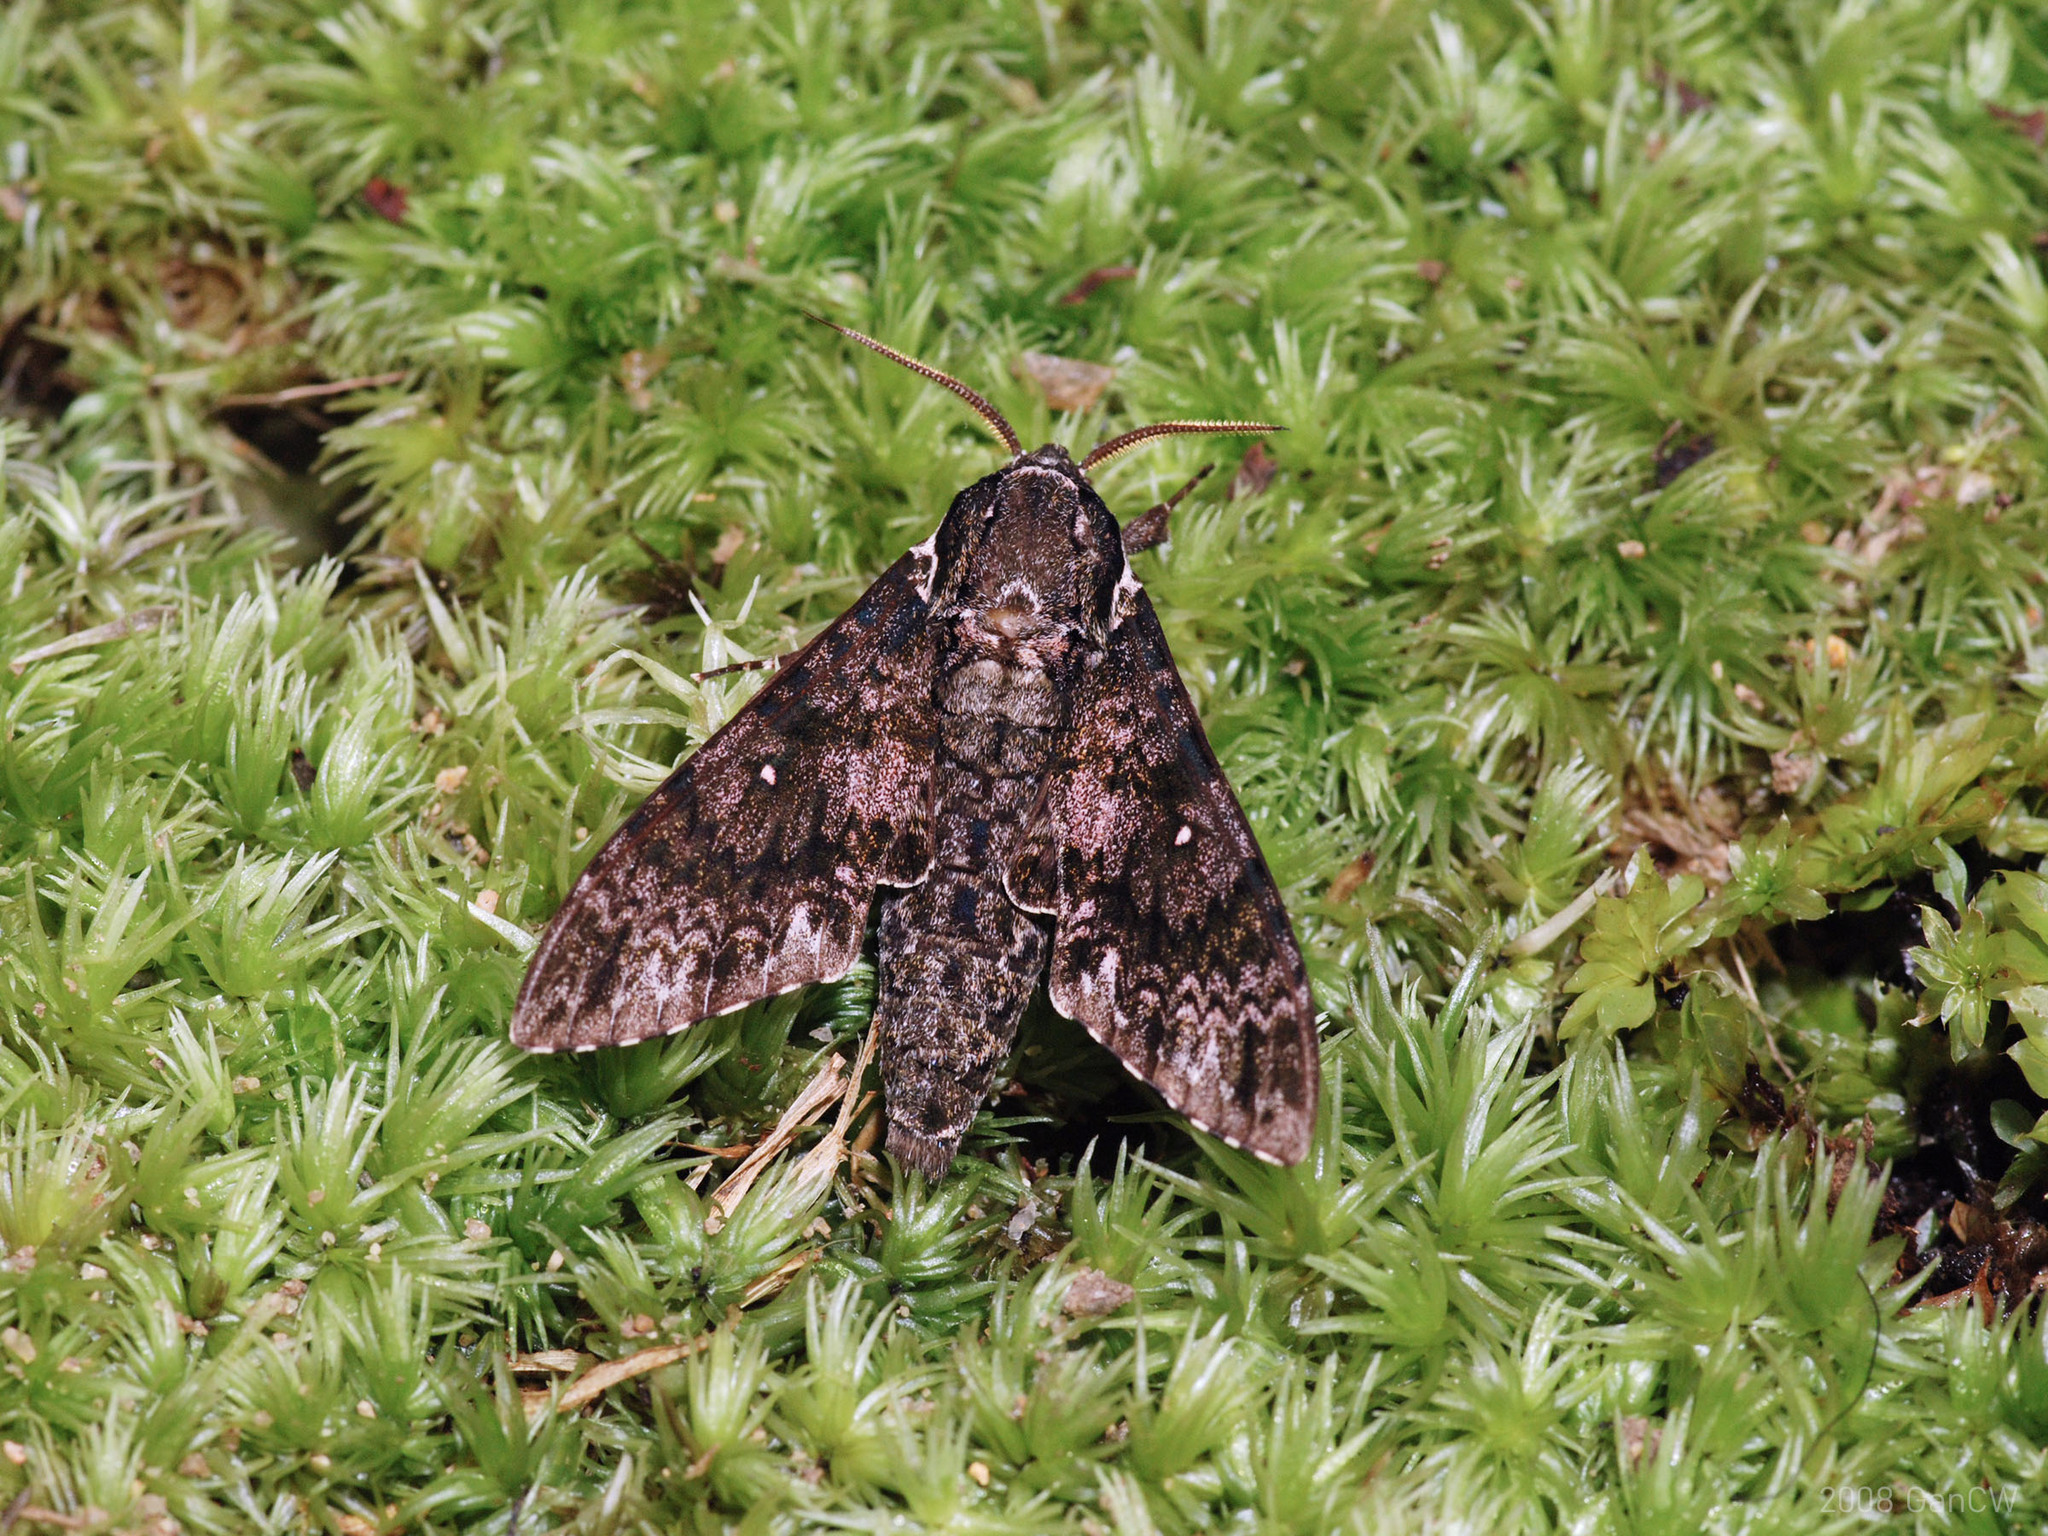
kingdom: Animalia
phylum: Arthropoda
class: Insecta
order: Lepidoptera
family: Sphingidae
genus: Dolbina
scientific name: Dolbina krikkeni
